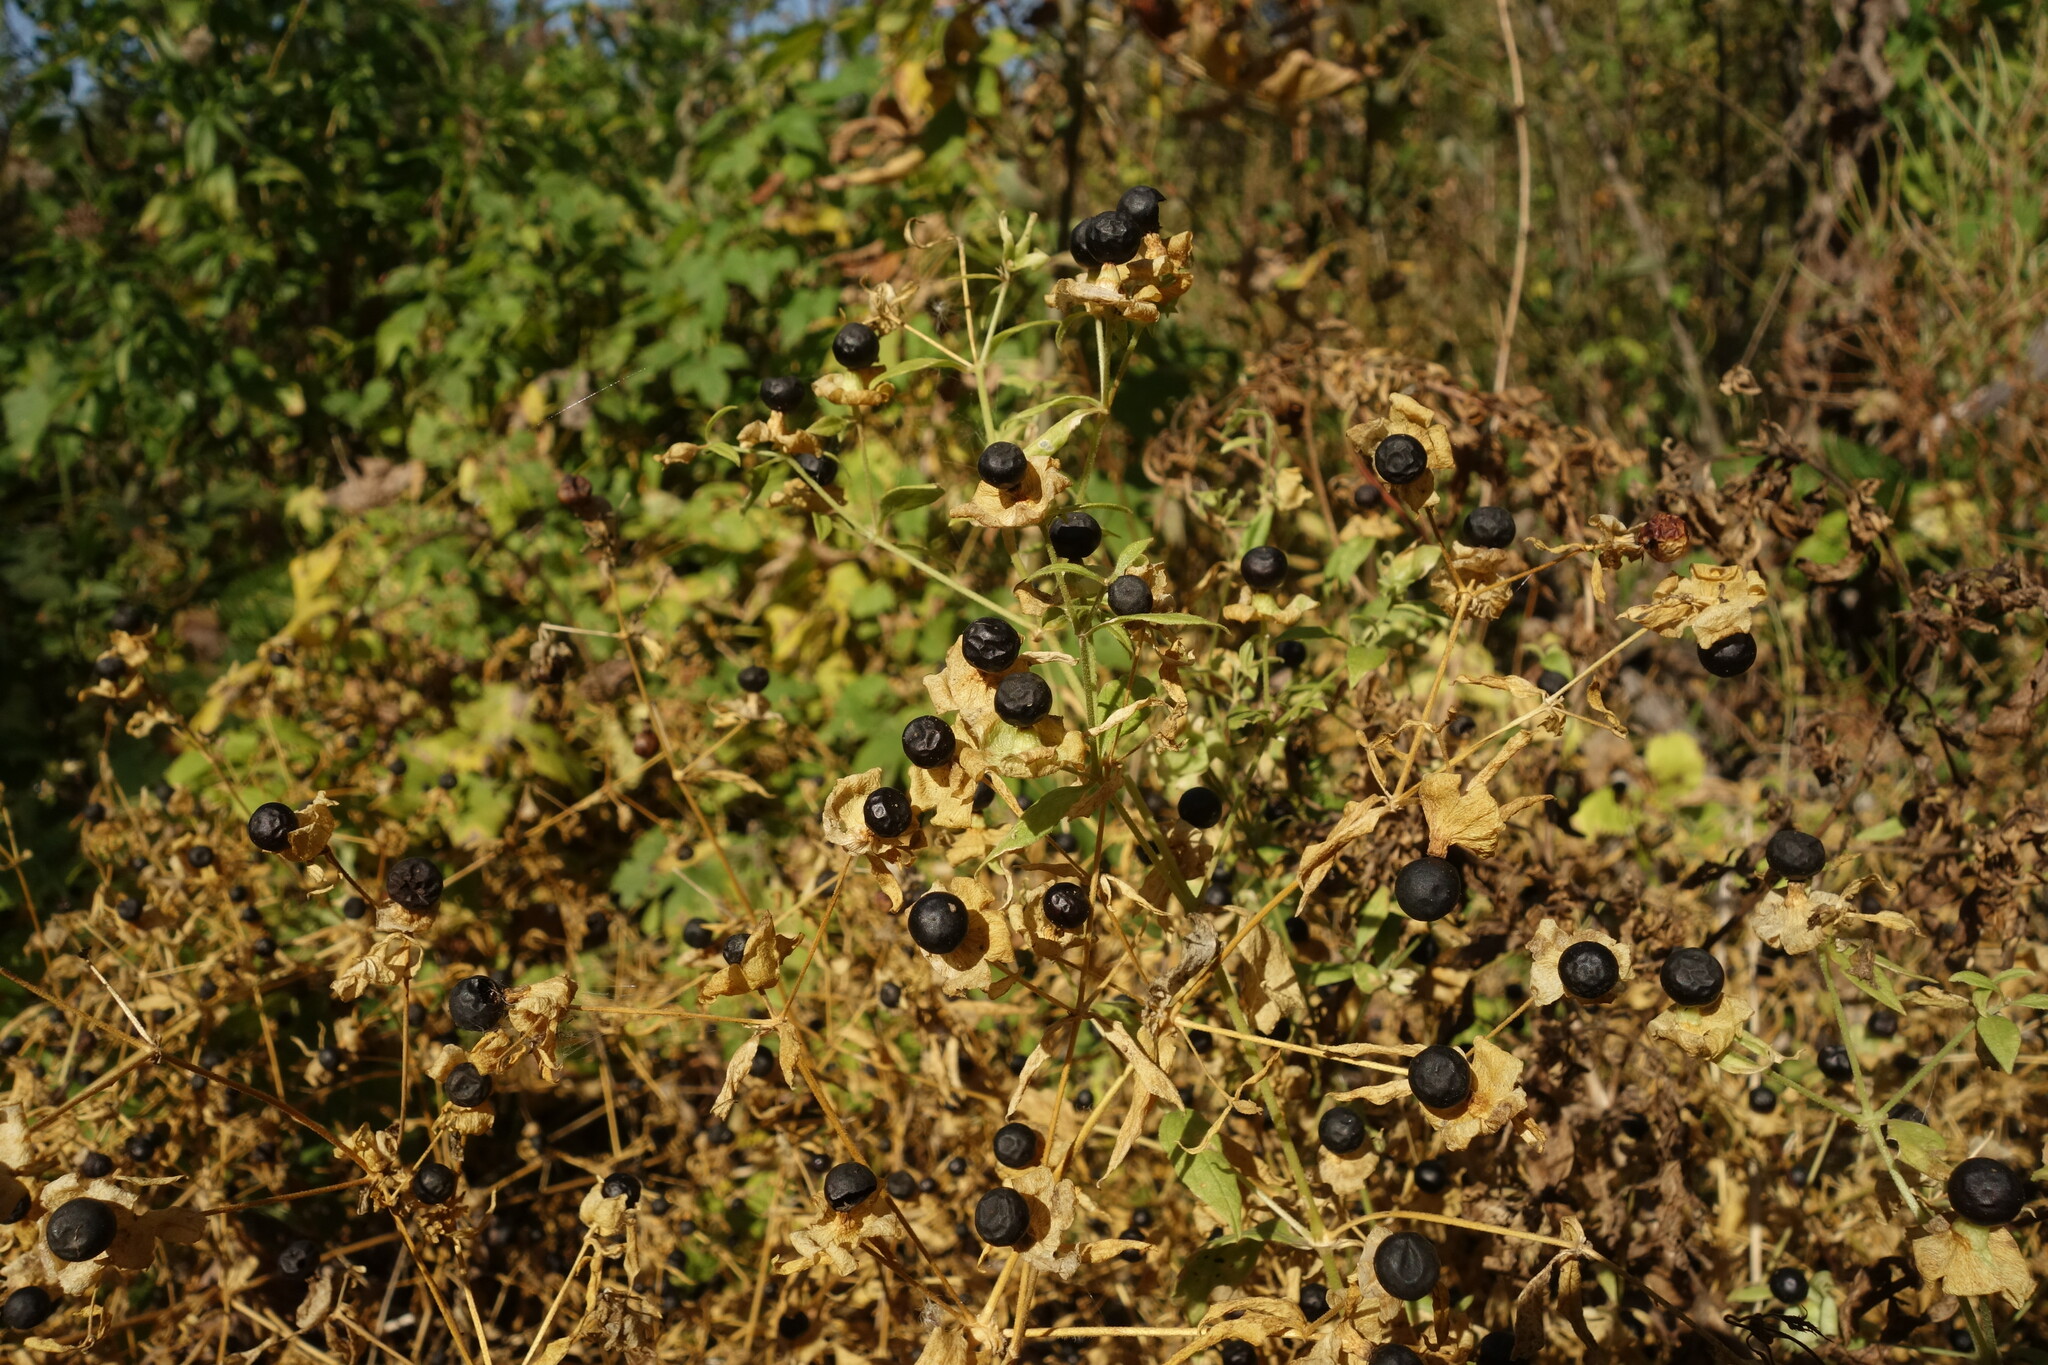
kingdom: Plantae
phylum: Tracheophyta
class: Magnoliopsida
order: Caryophyllales
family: Caryophyllaceae
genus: Silene
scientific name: Silene baccifera
